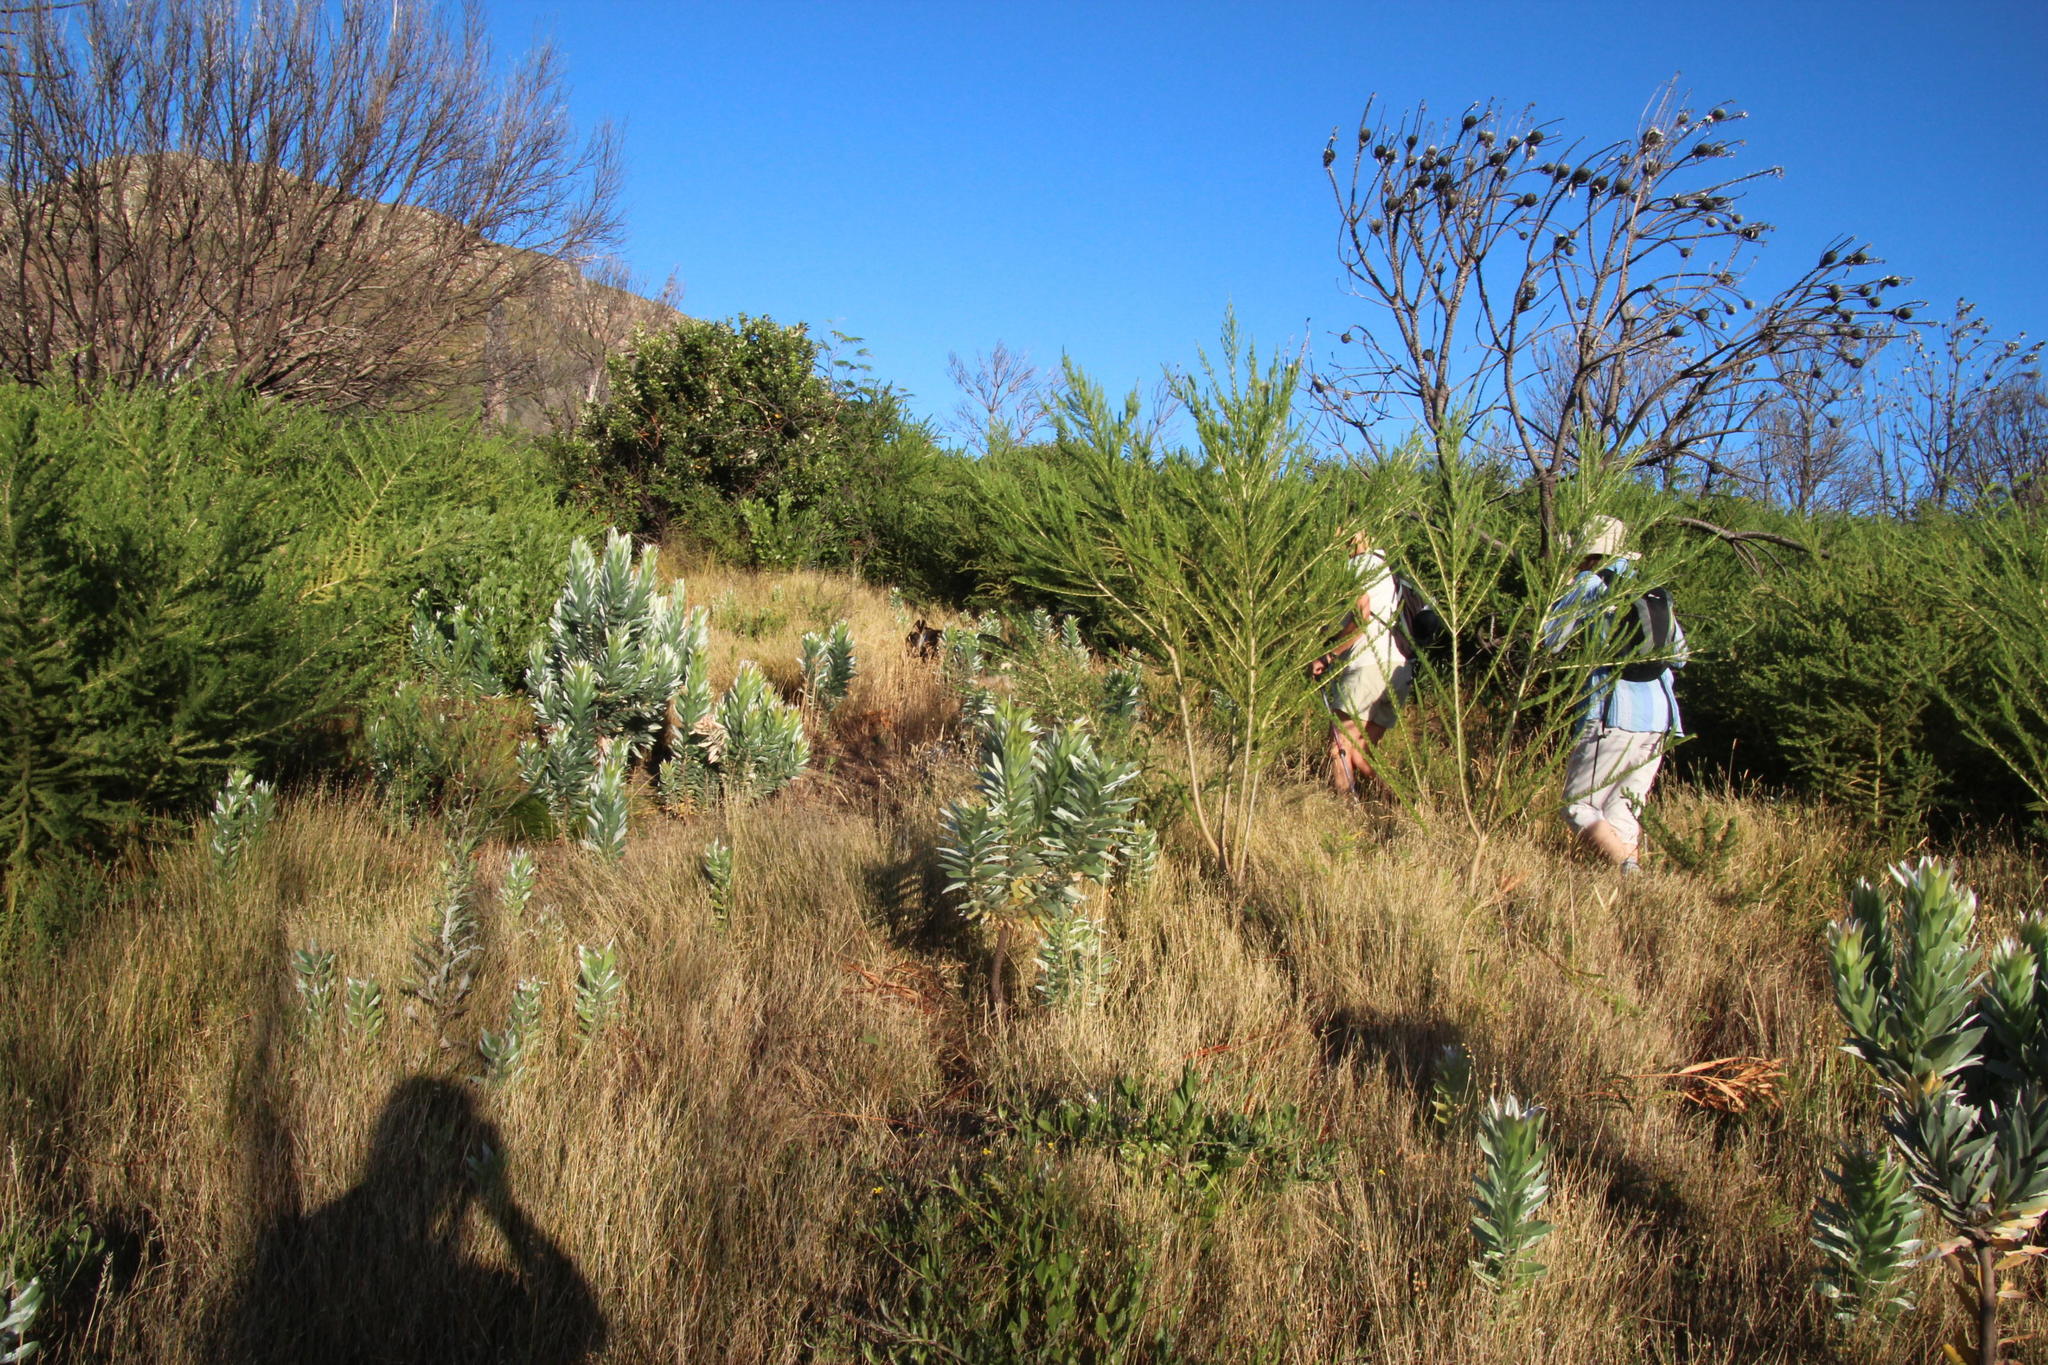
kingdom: Plantae
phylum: Tracheophyta
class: Magnoliopsida
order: Proteales
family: Proteaceae
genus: Leucadendron
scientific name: Leucadendron argenteum
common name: Cape silver tree
